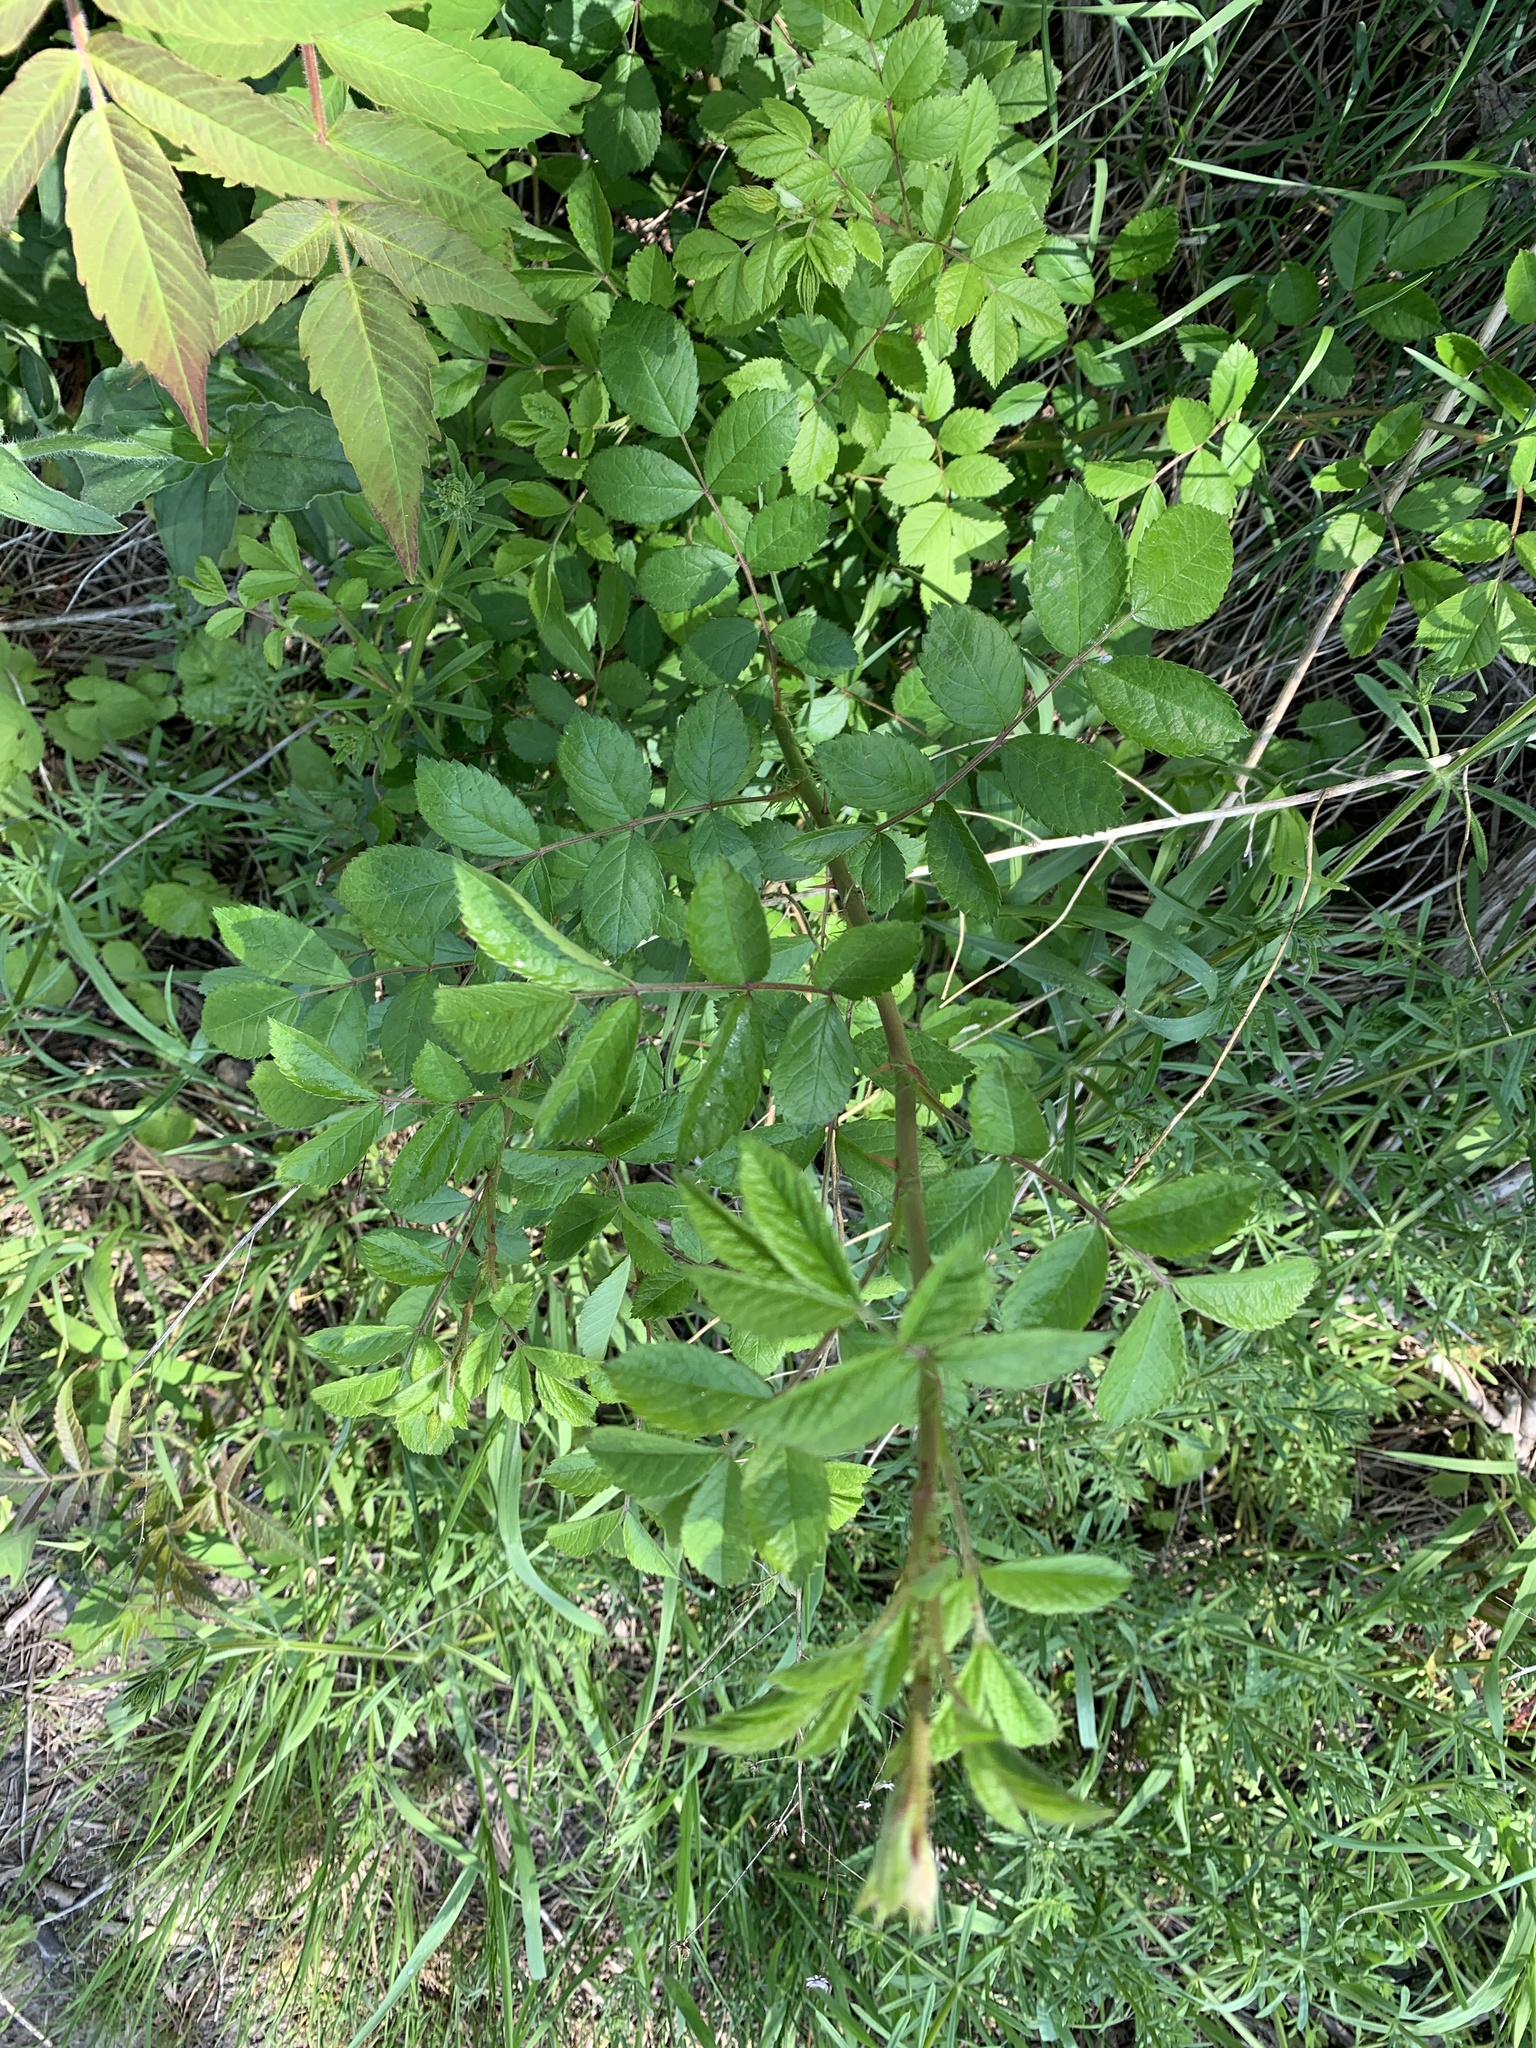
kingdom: Plantae
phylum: Tracheophyta
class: Magnoliopsida
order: Rosales
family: Rosaceae
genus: Rosa
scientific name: Rosa multiflora
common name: Multiflora rose
